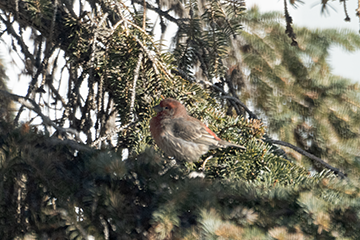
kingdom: Animalia
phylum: Chordata
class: Aves
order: Passeriformes
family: Fringillidae
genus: Haemorhous
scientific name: Haemorhous mexicanus
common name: House finch
